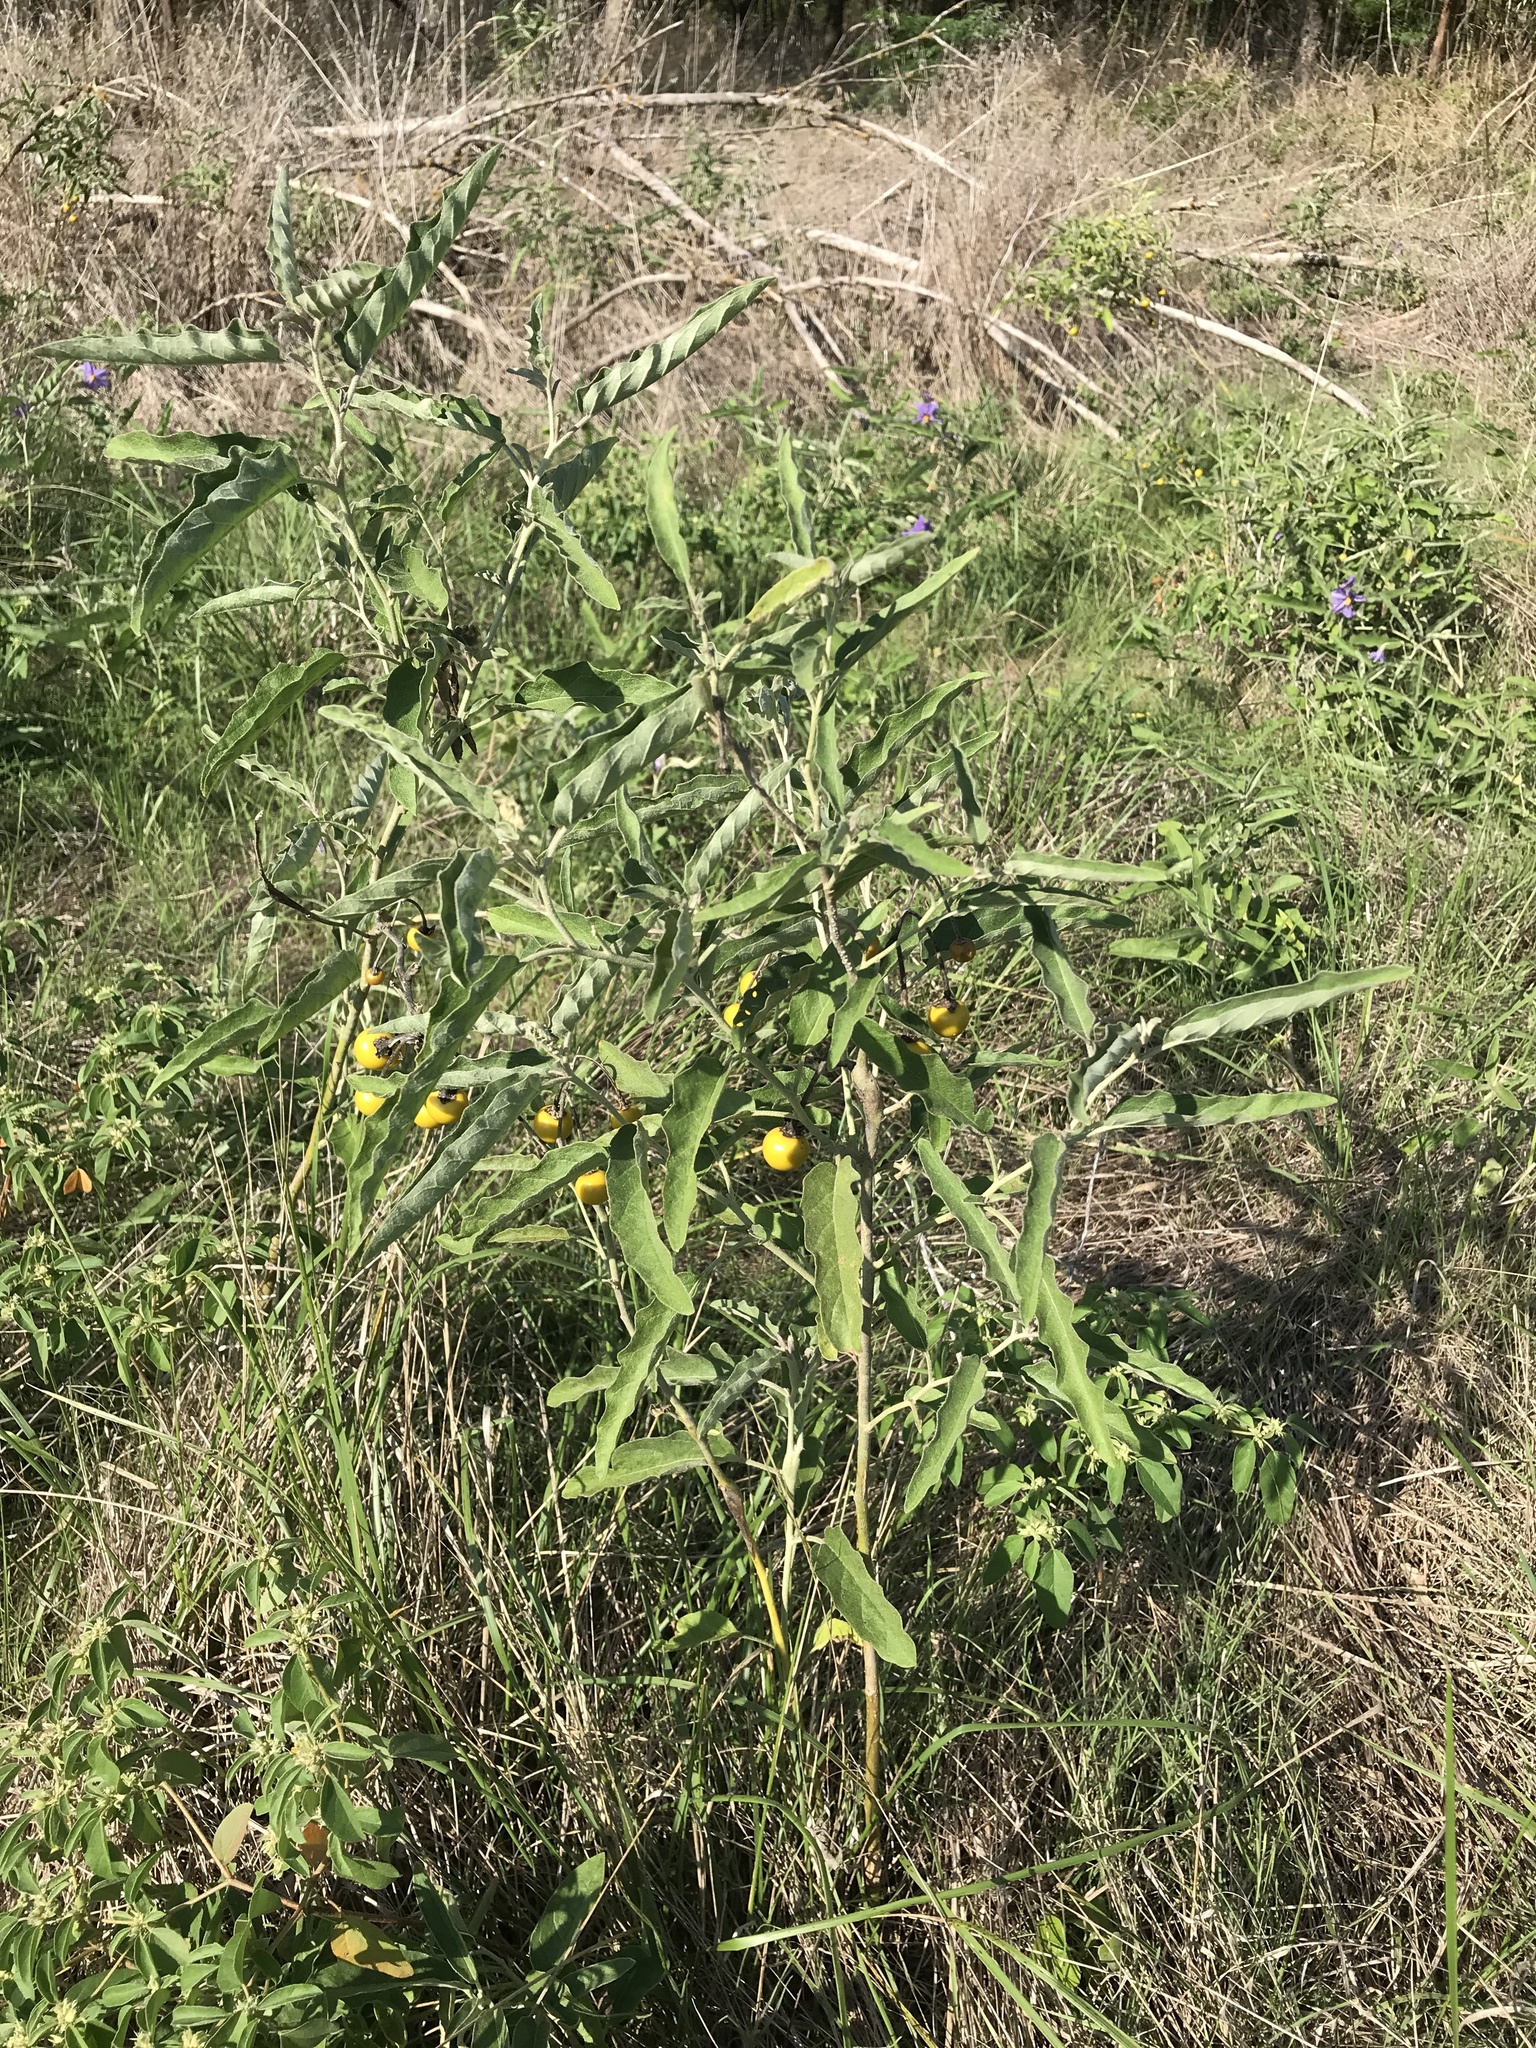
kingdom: Plantae
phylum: Tracheophyta
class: Magnoliopsida
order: Solanales
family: Solanaceae
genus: Solanum
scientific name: Solanum elaeagnifolium
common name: Silverleaf nightshade
